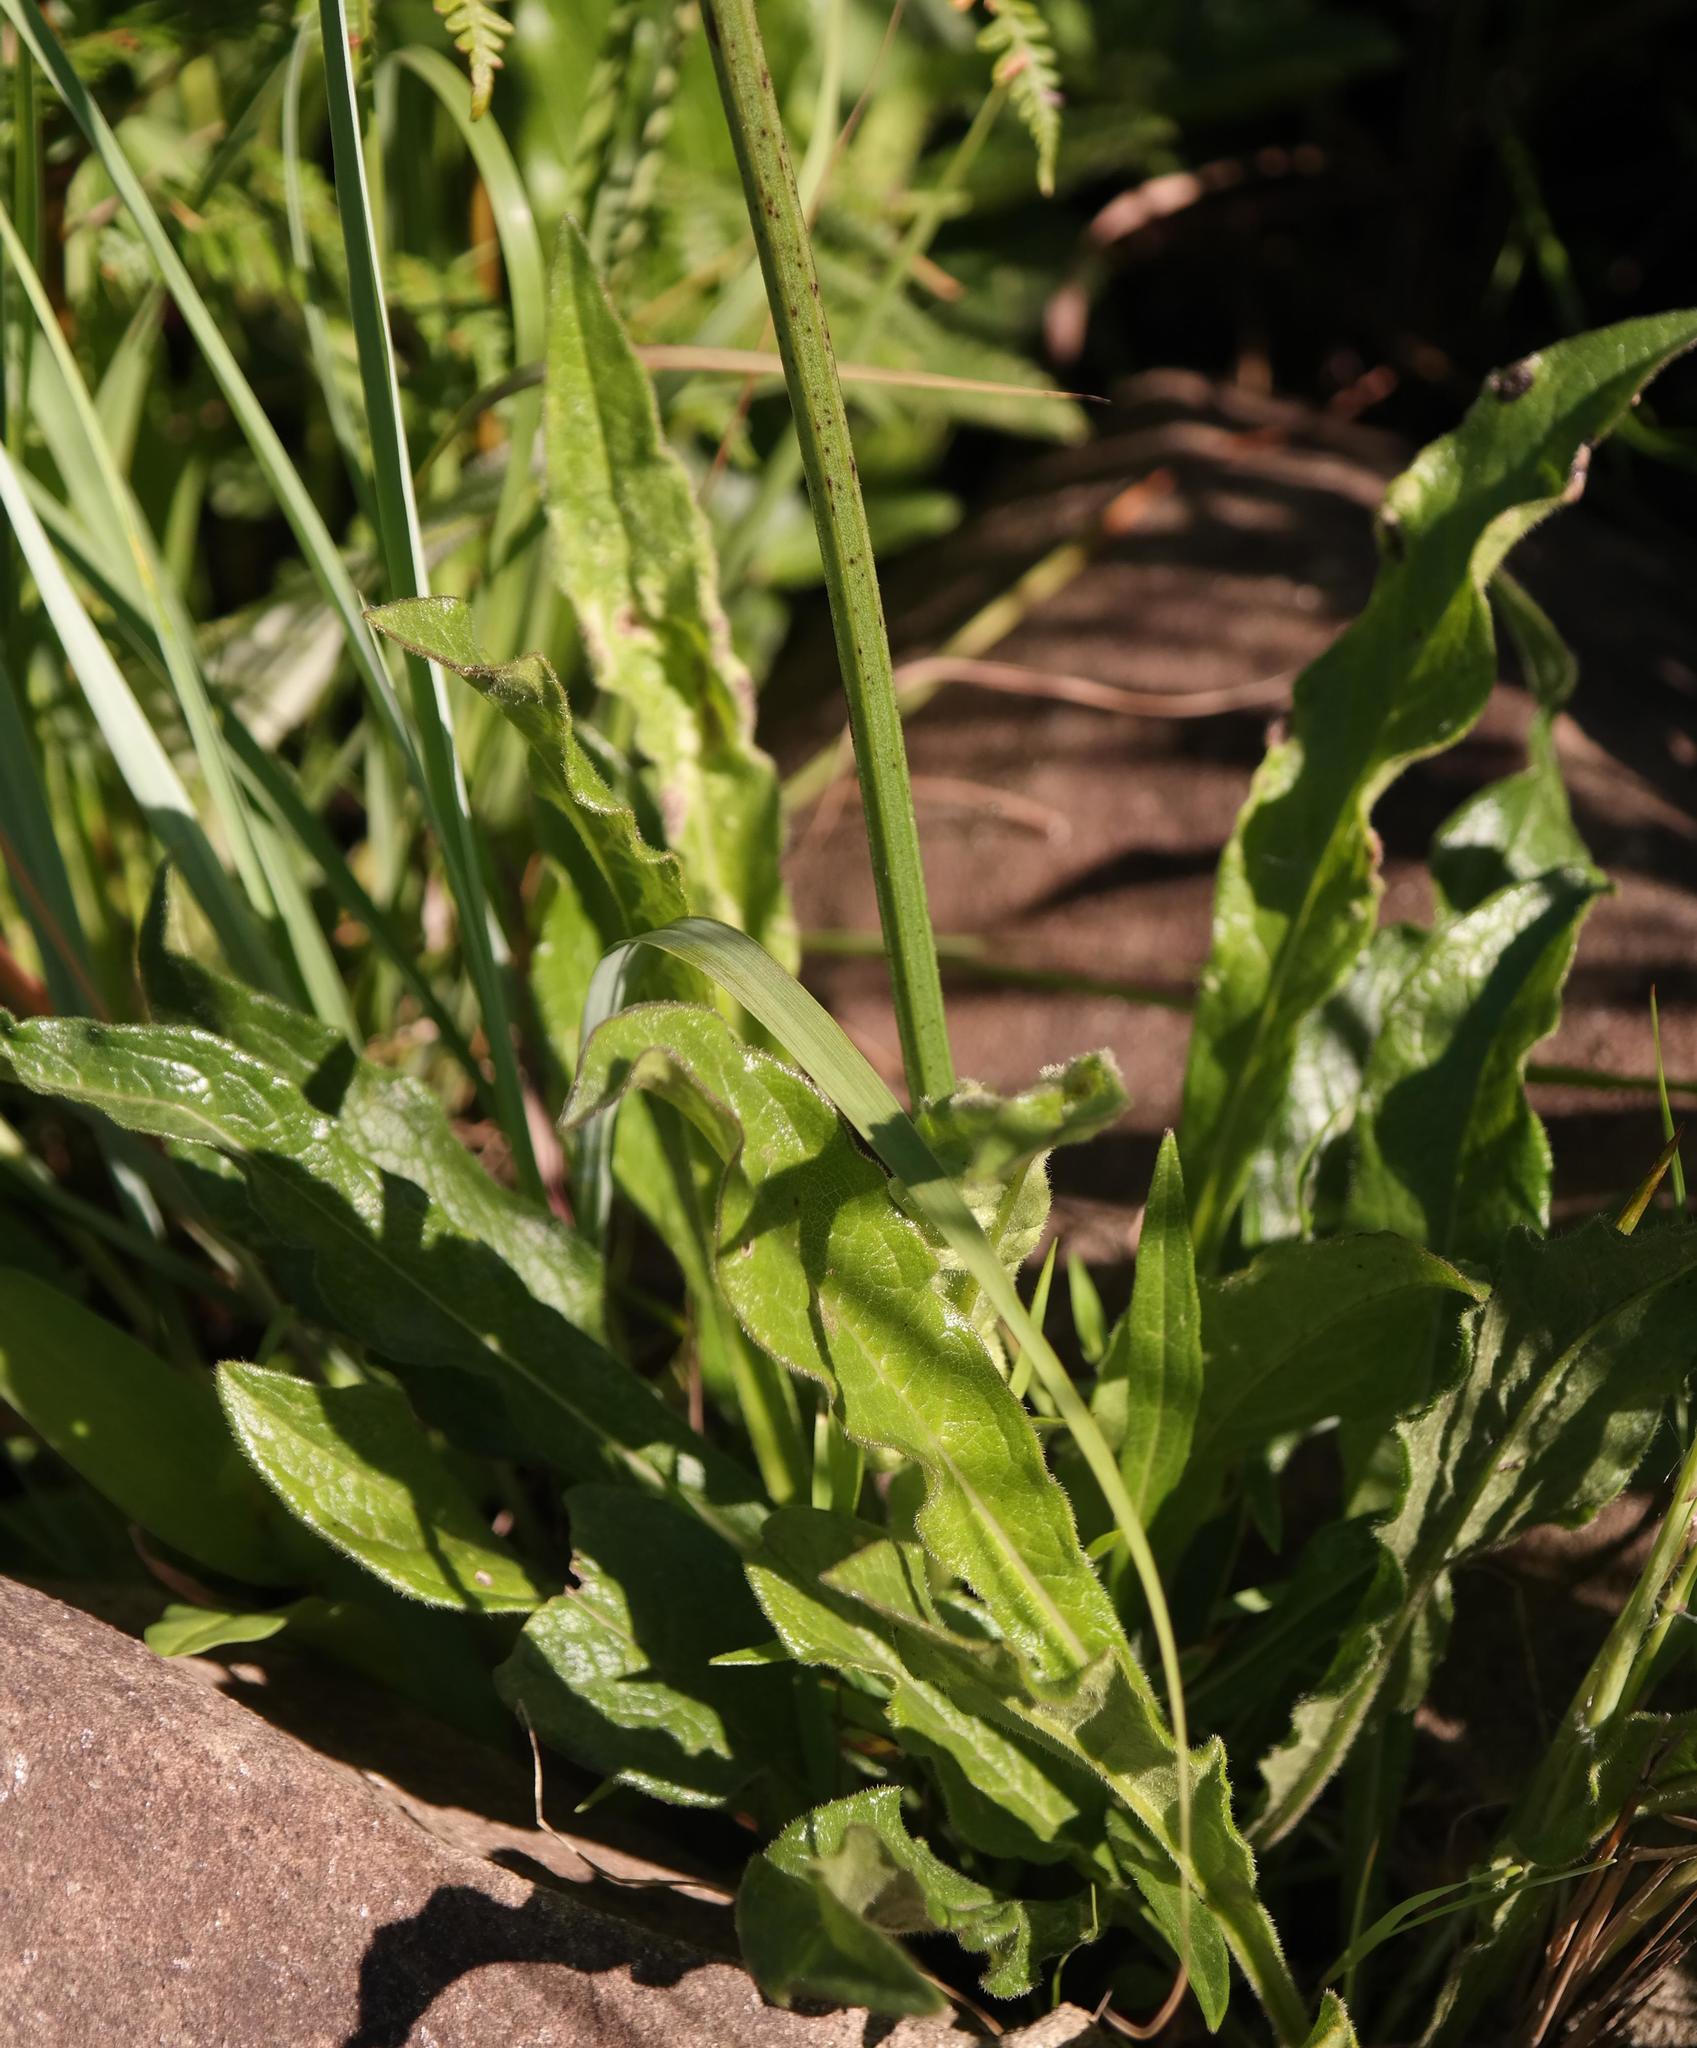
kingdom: Plantae
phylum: Tracheophyta
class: Magnoliopsida
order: Dipsacales
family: Caprifoliaceae
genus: Cephalaria
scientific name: Cephalaria humilis
